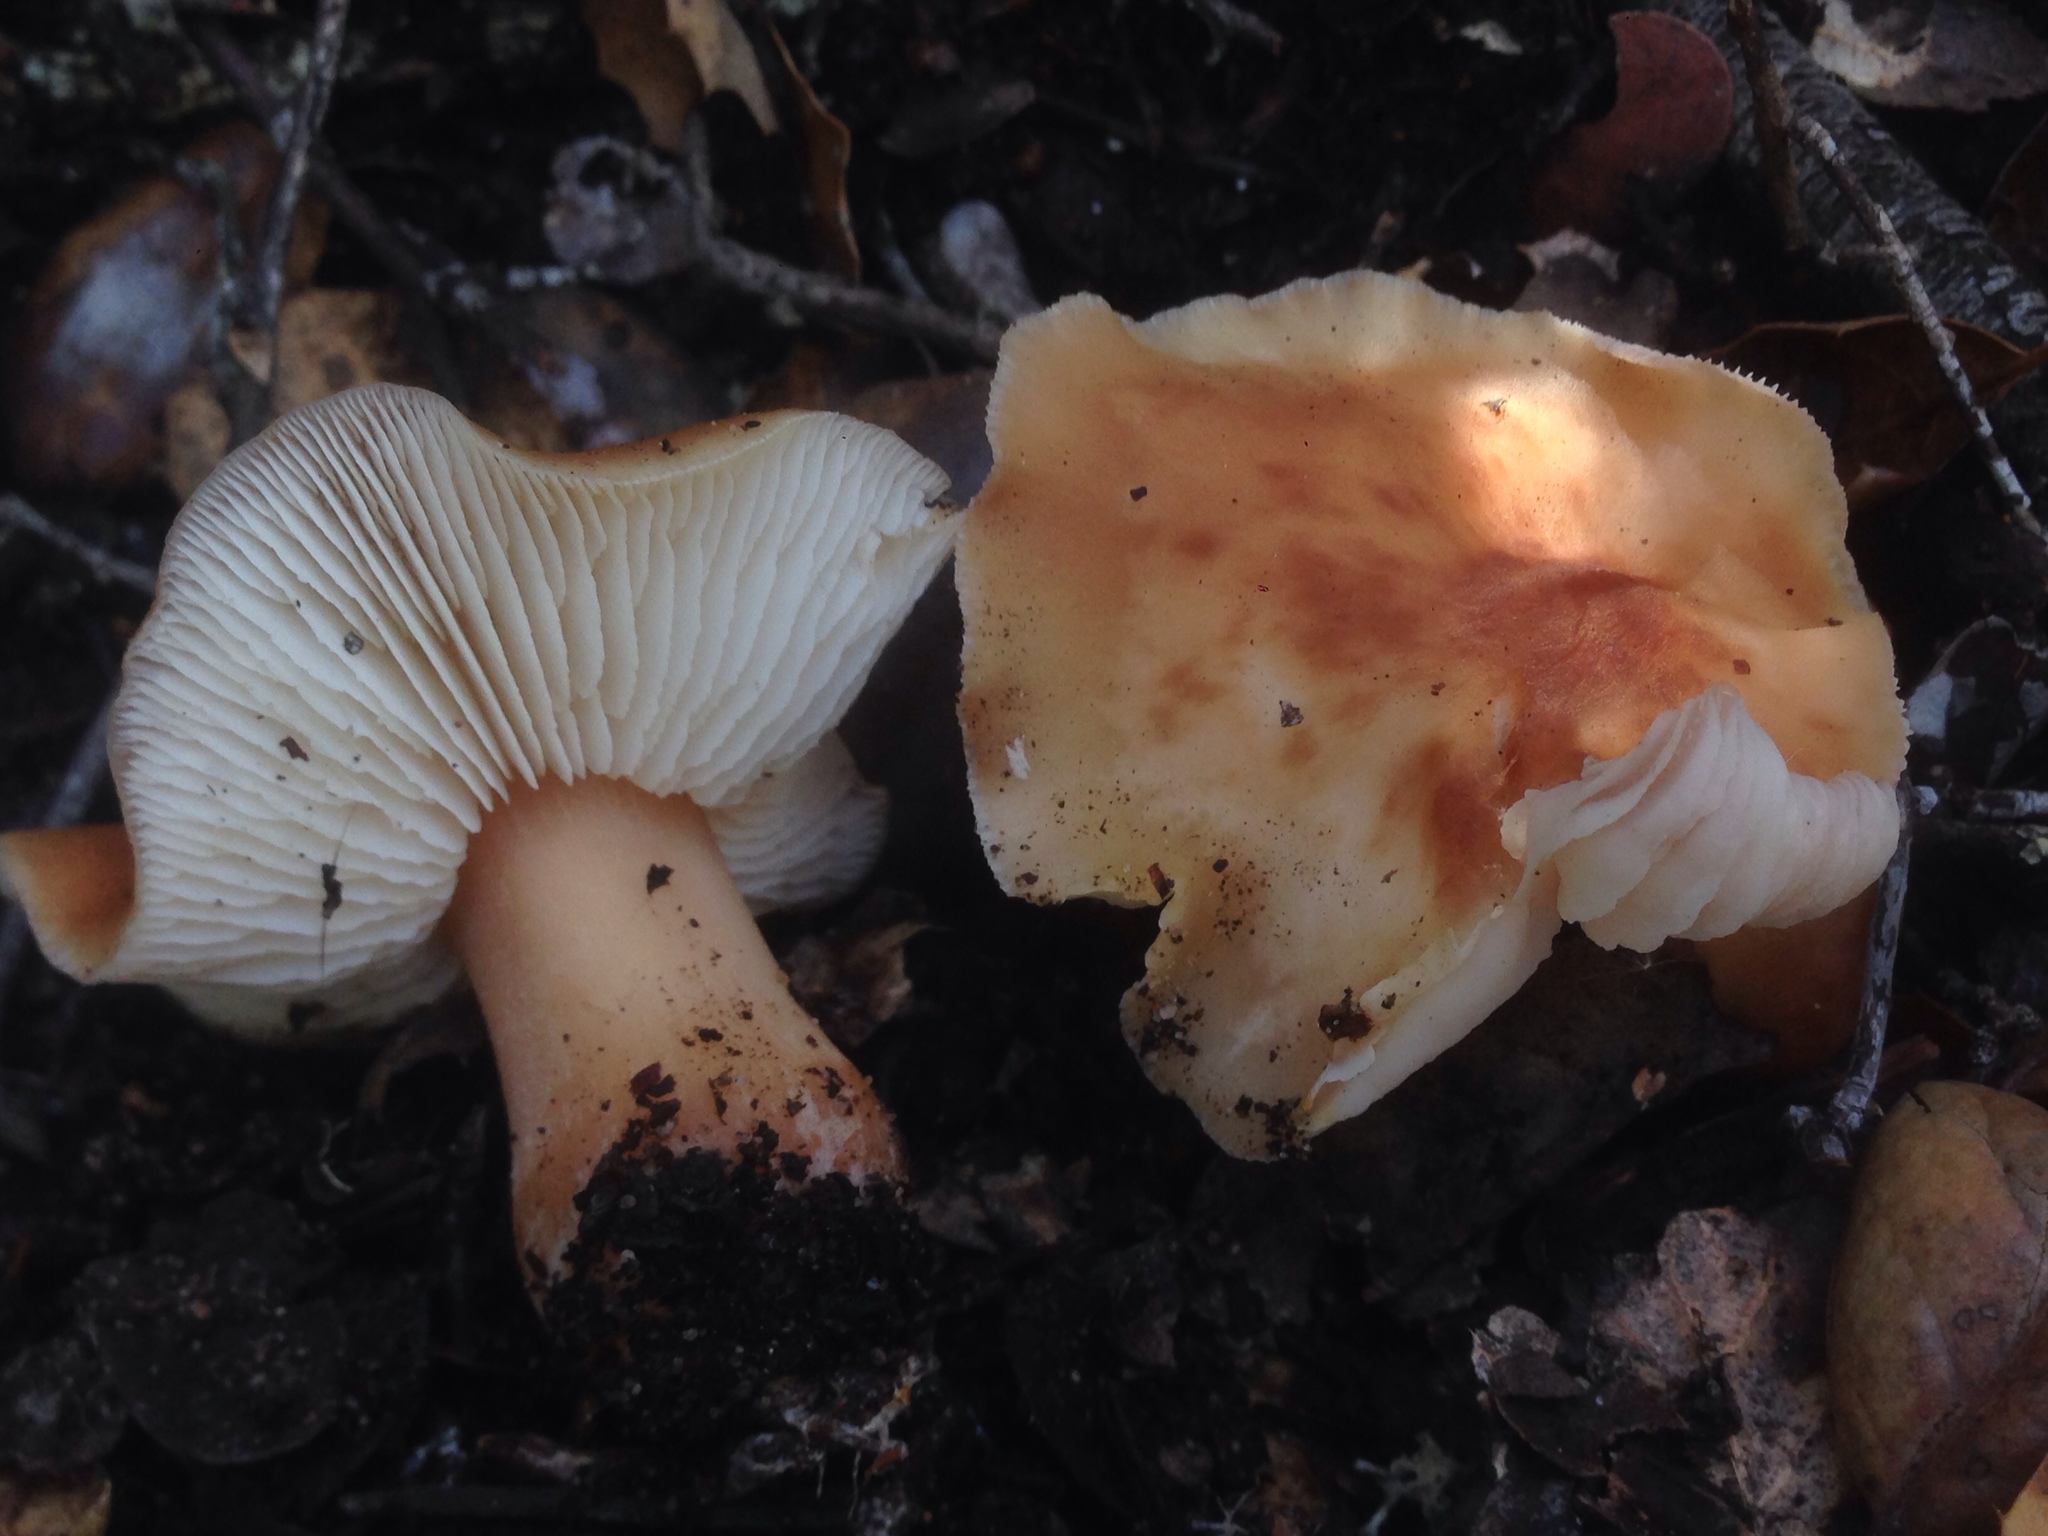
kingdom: Fungi
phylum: Basidiomycota
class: Agaricomycetes
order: Agaricales
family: Omphalotaceae
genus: Gymnopus
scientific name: Gymnopus dryophilus
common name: Penny top
